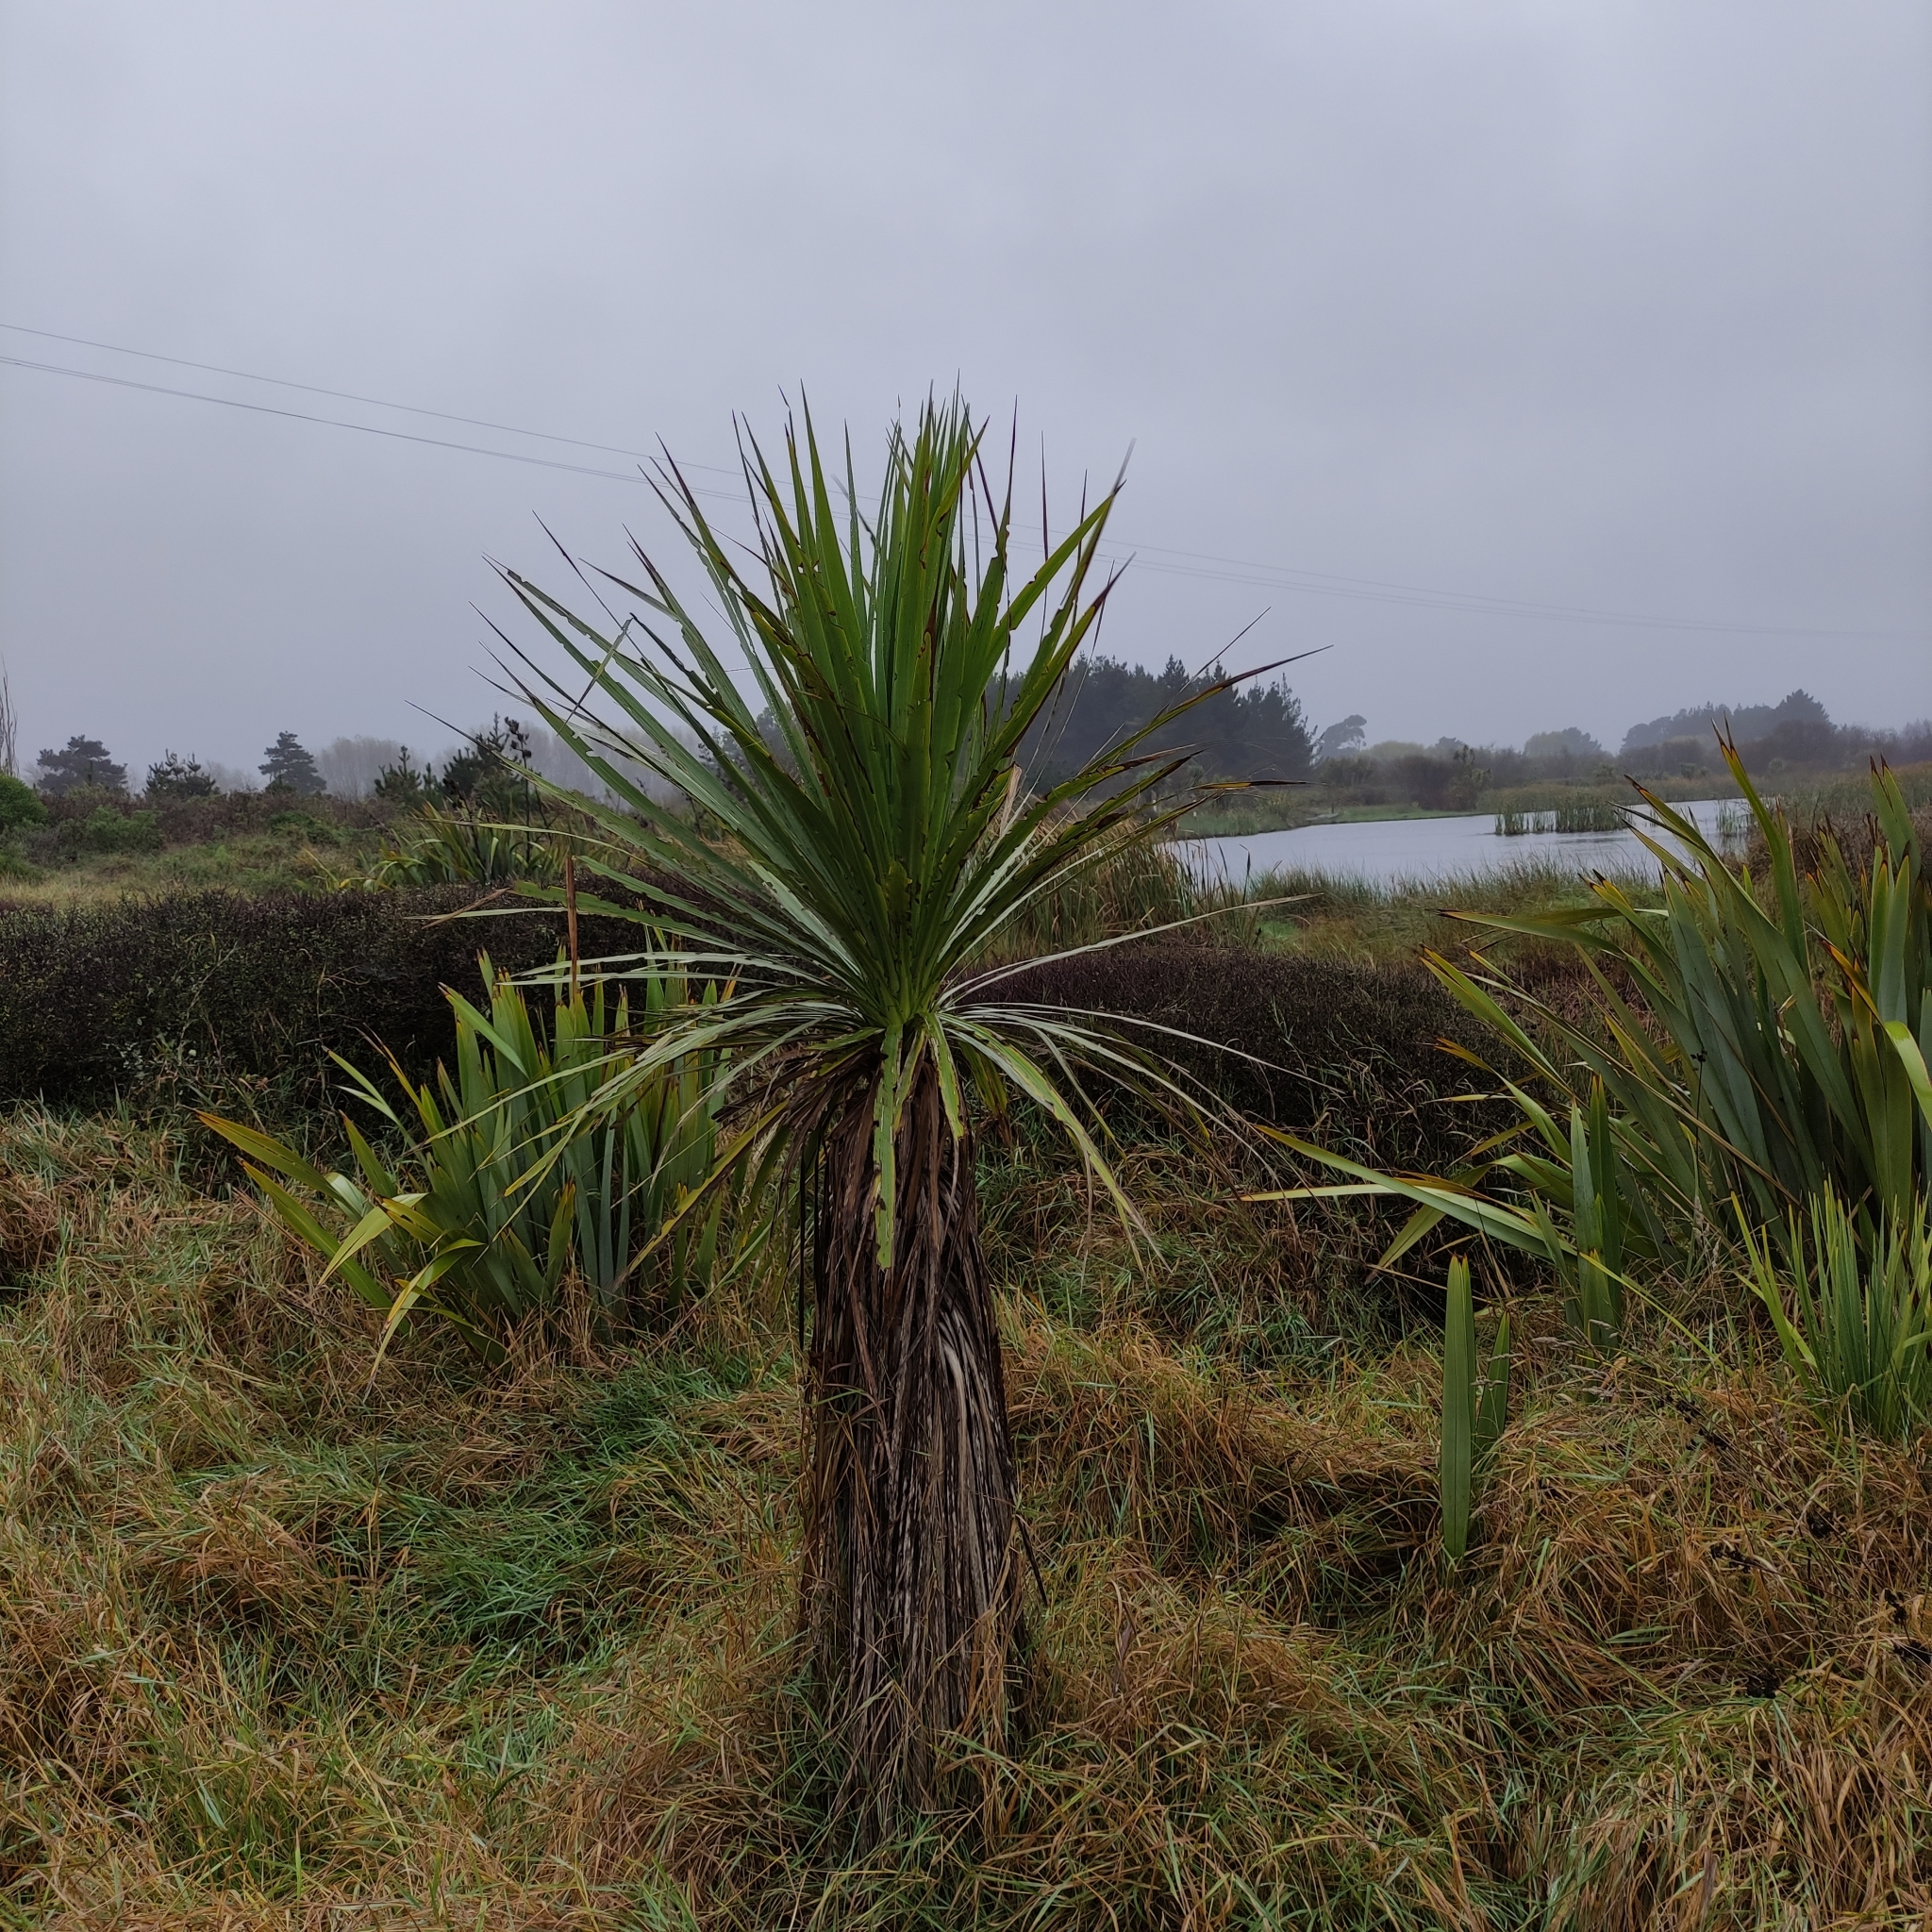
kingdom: Plantae
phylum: Tracheophyta
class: Liliopsida
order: Asparagales
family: Asparagaceae
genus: Cordyline
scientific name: Cordyline australis
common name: Cabbage-palm
